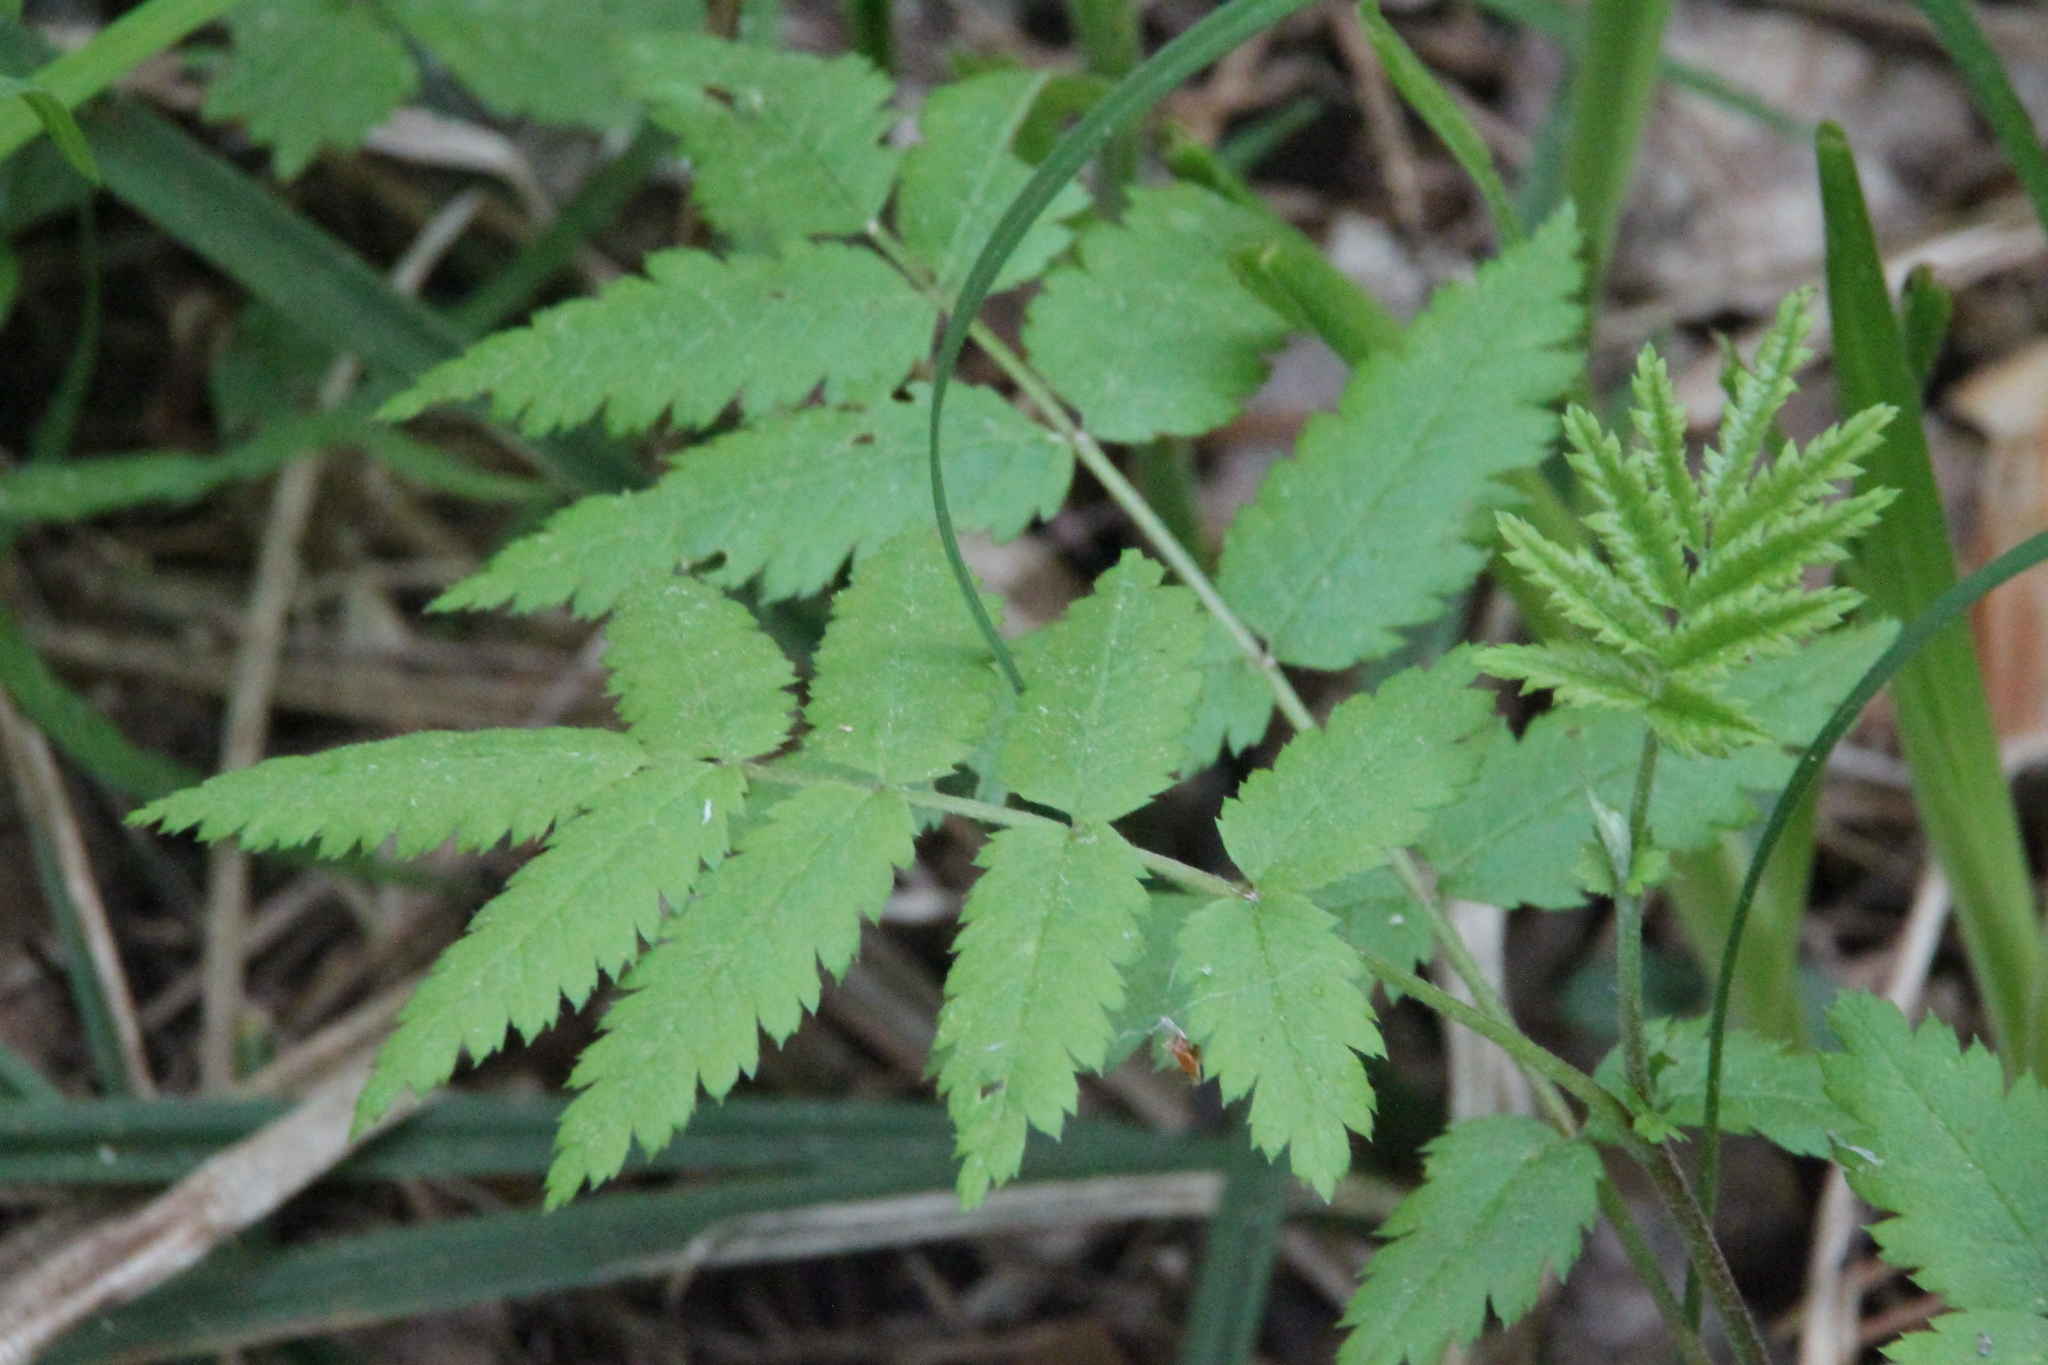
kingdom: Plantae
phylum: Tracheophyta
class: Magnoliopsida
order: Rosales
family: Rosaceae
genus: Sorbus
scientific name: Sorbus aucuparia
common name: Rowan
